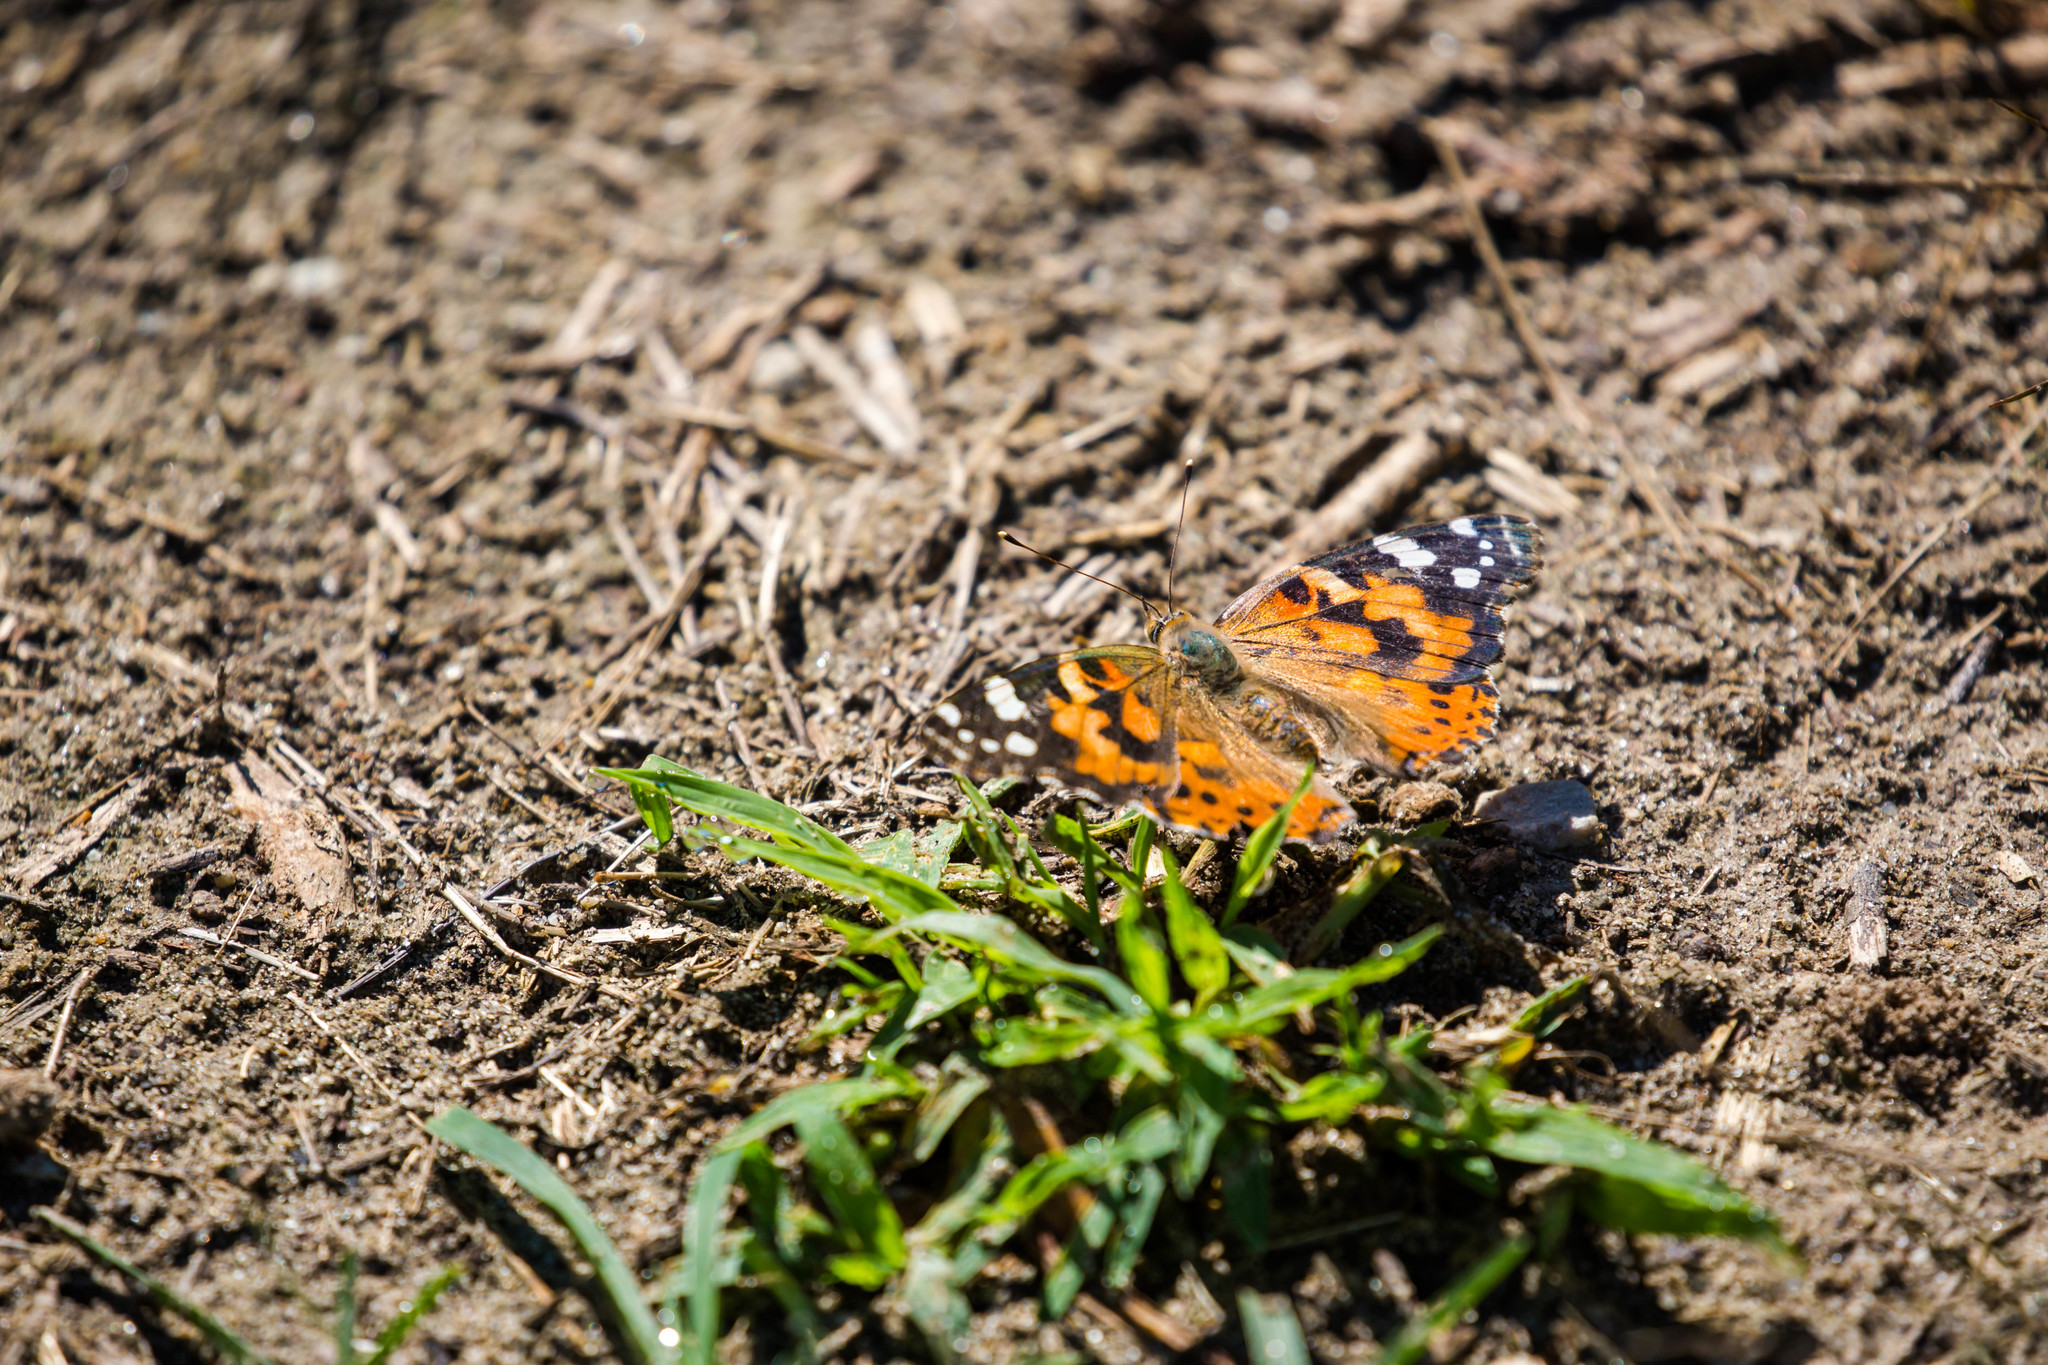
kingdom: Animalia
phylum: Arthropoda
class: Insecta
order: Lepidoptera
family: Nymphalidae
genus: Vanessa
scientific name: Vanessa cardui
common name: Painted lady
